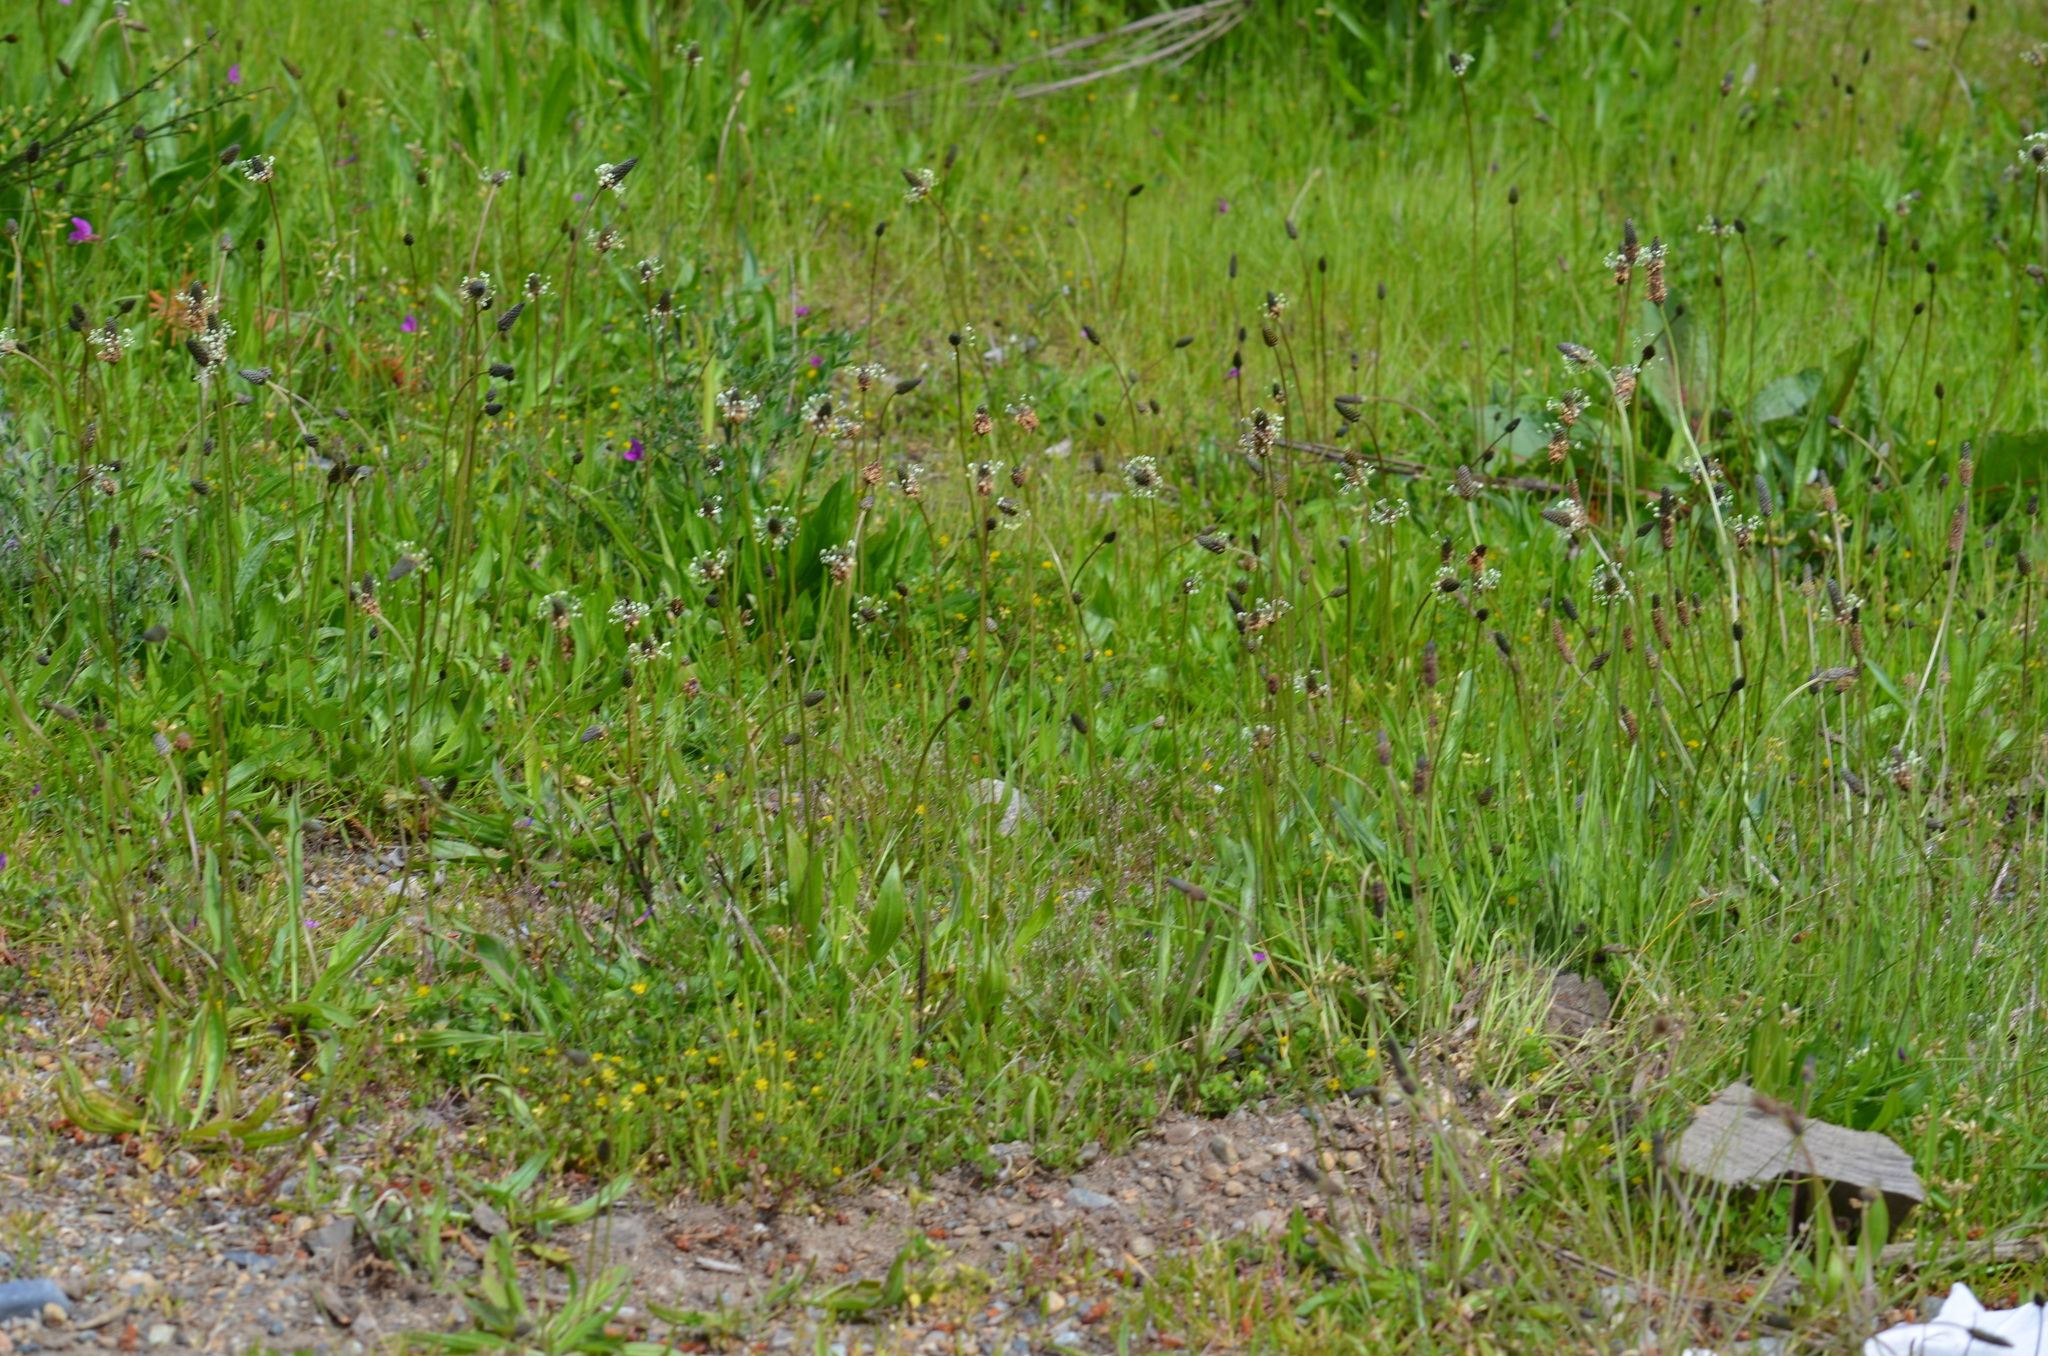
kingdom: Plantae
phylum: Tracheophyta
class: Magnoliopsida
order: Lamiales
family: Plantaginaceae
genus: Plantago
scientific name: Plantago lanceolata
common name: Ribwort plantain
